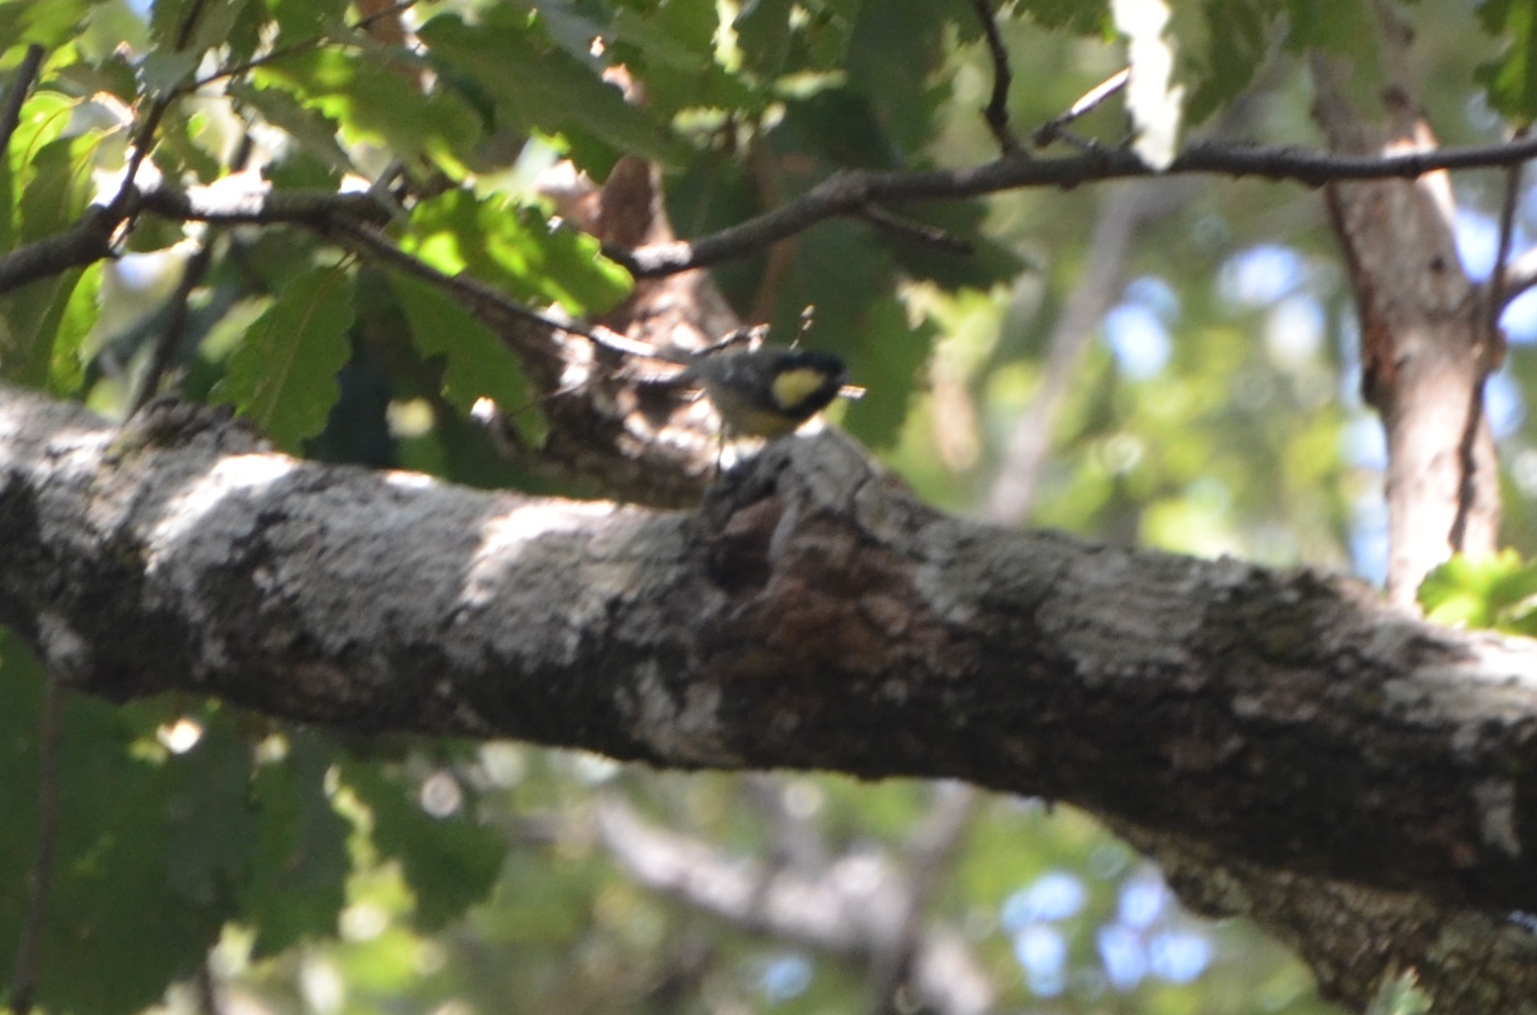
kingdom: Animalia
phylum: Chordata
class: Aves
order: Passeriformes
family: Paridae
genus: Periparus
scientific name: Periparus ater
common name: Coal tit
